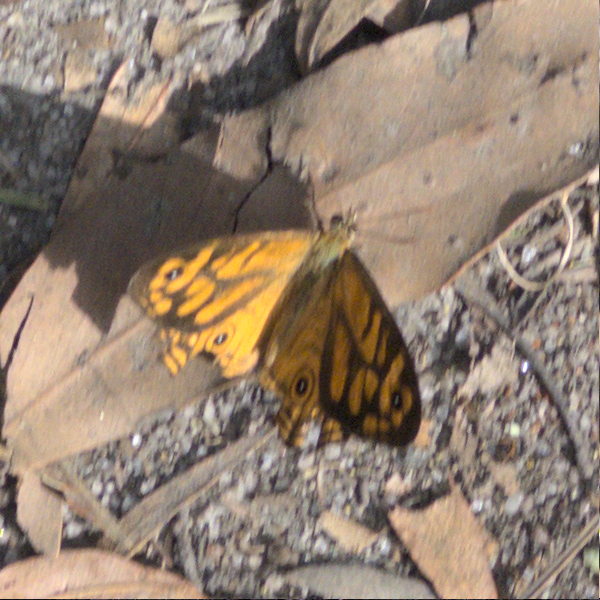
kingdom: Animalia
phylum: Arthropoda
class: Insecta
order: Lepidoptera
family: Nymphalidae
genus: Geitoneura
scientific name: Geitoneura acantha
